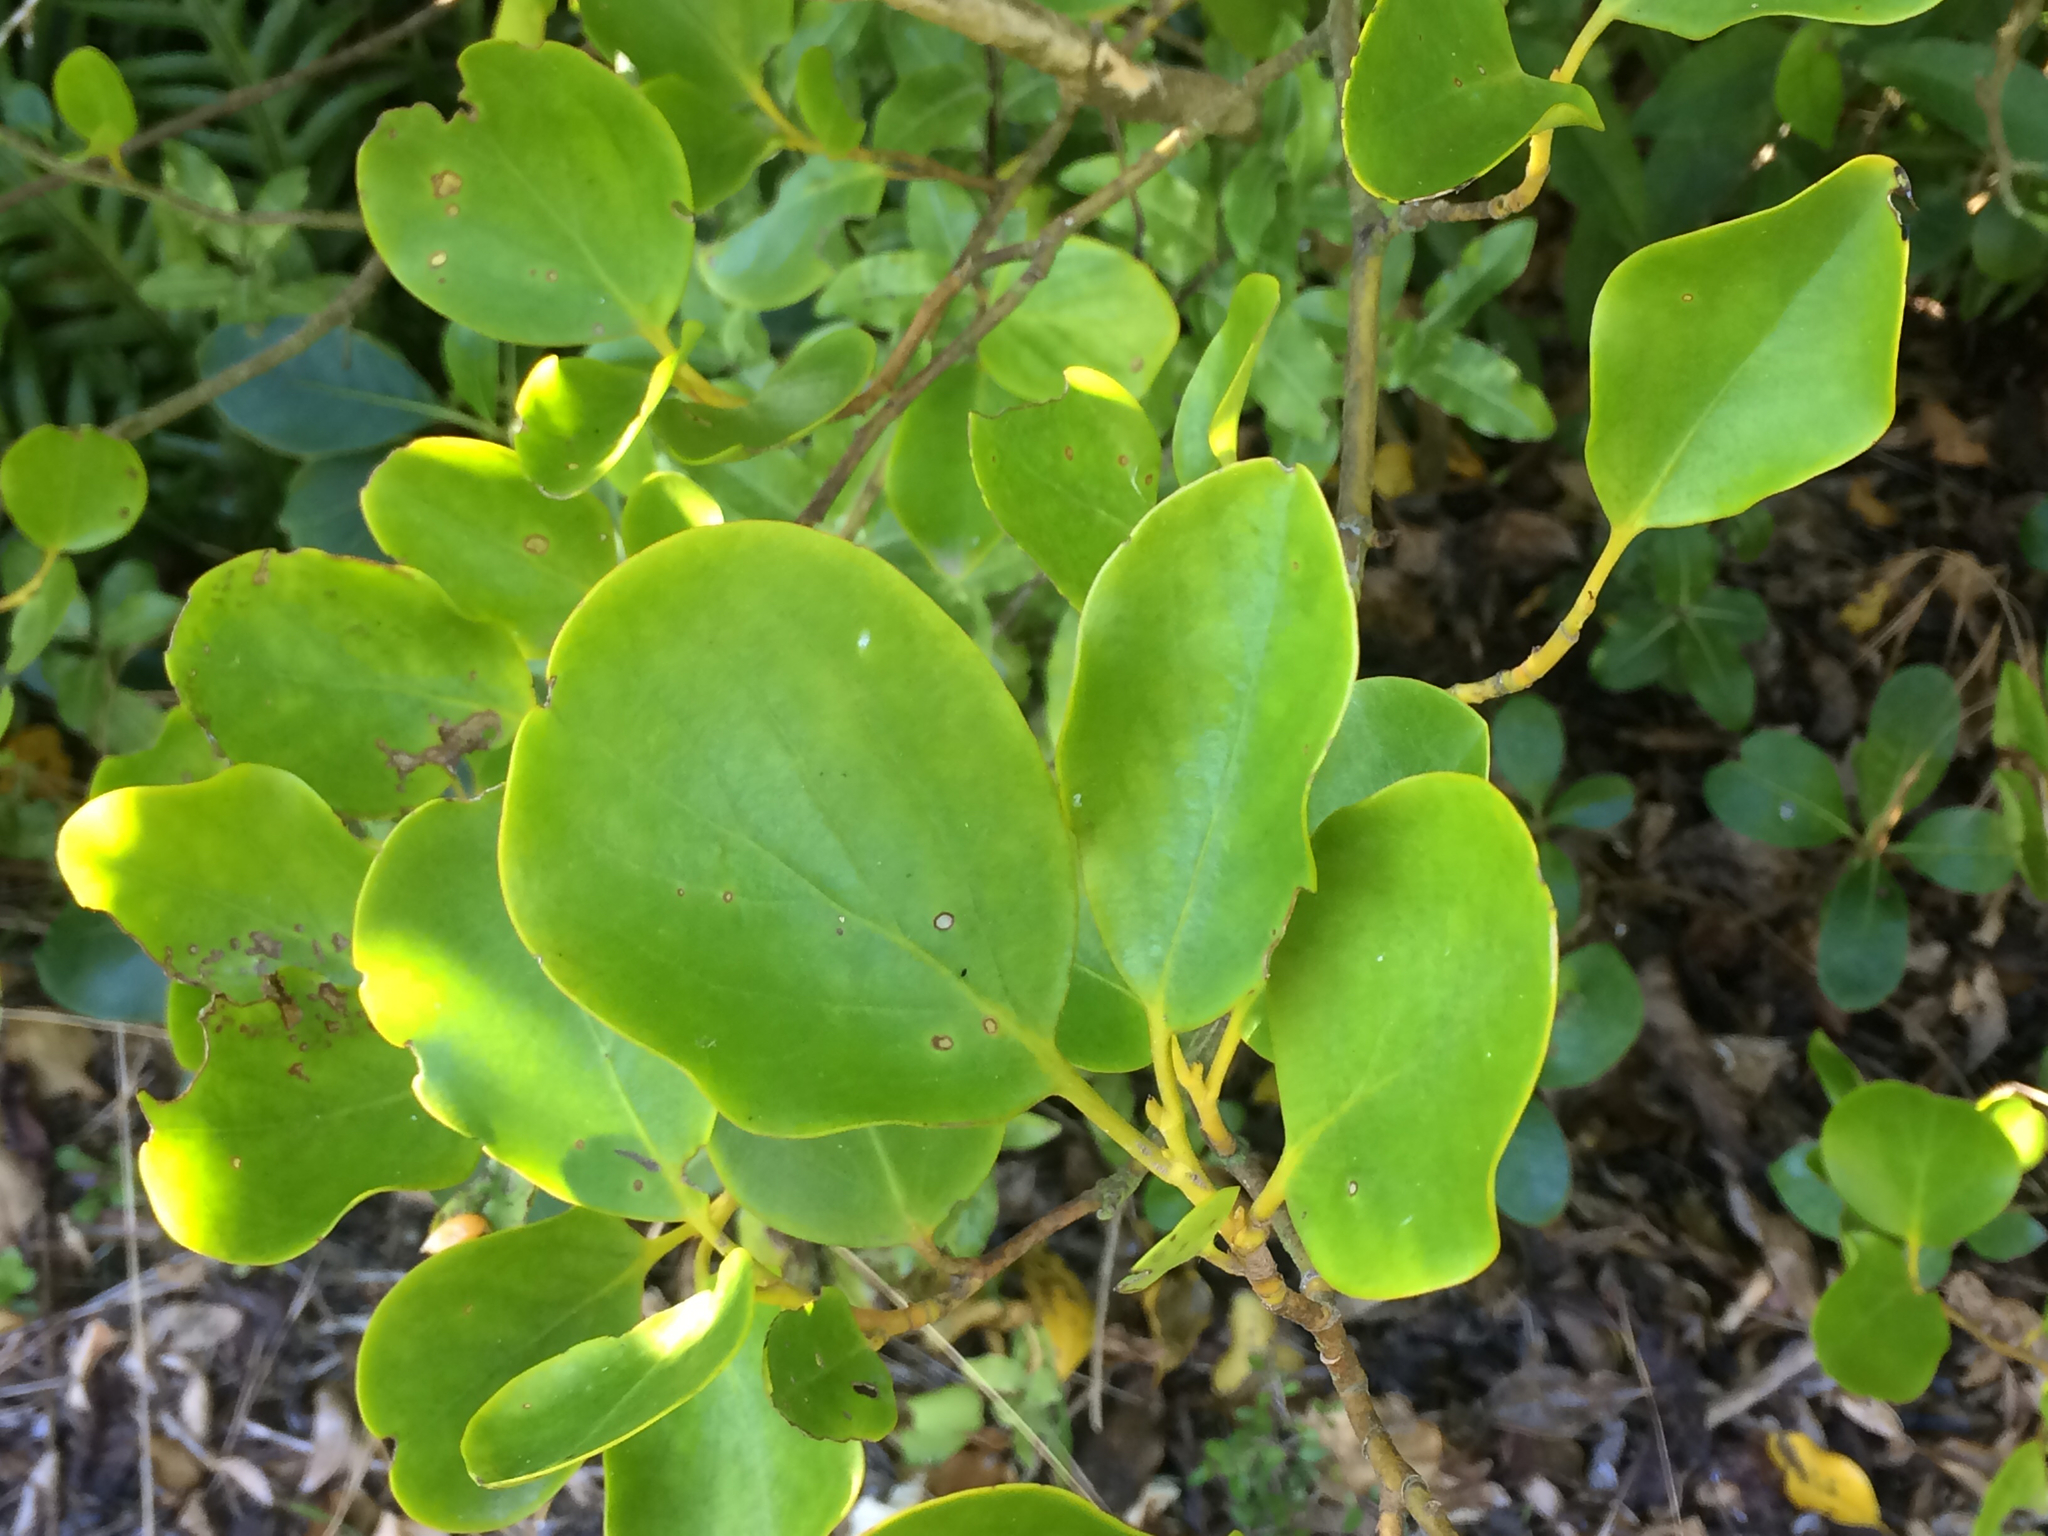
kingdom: Plantae
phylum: Tracheophyta
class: Magnoliopsida
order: Apiales
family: Griseliniaceae
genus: Griselinia
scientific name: Griselinia littoralis
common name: New zealand broadleaf
